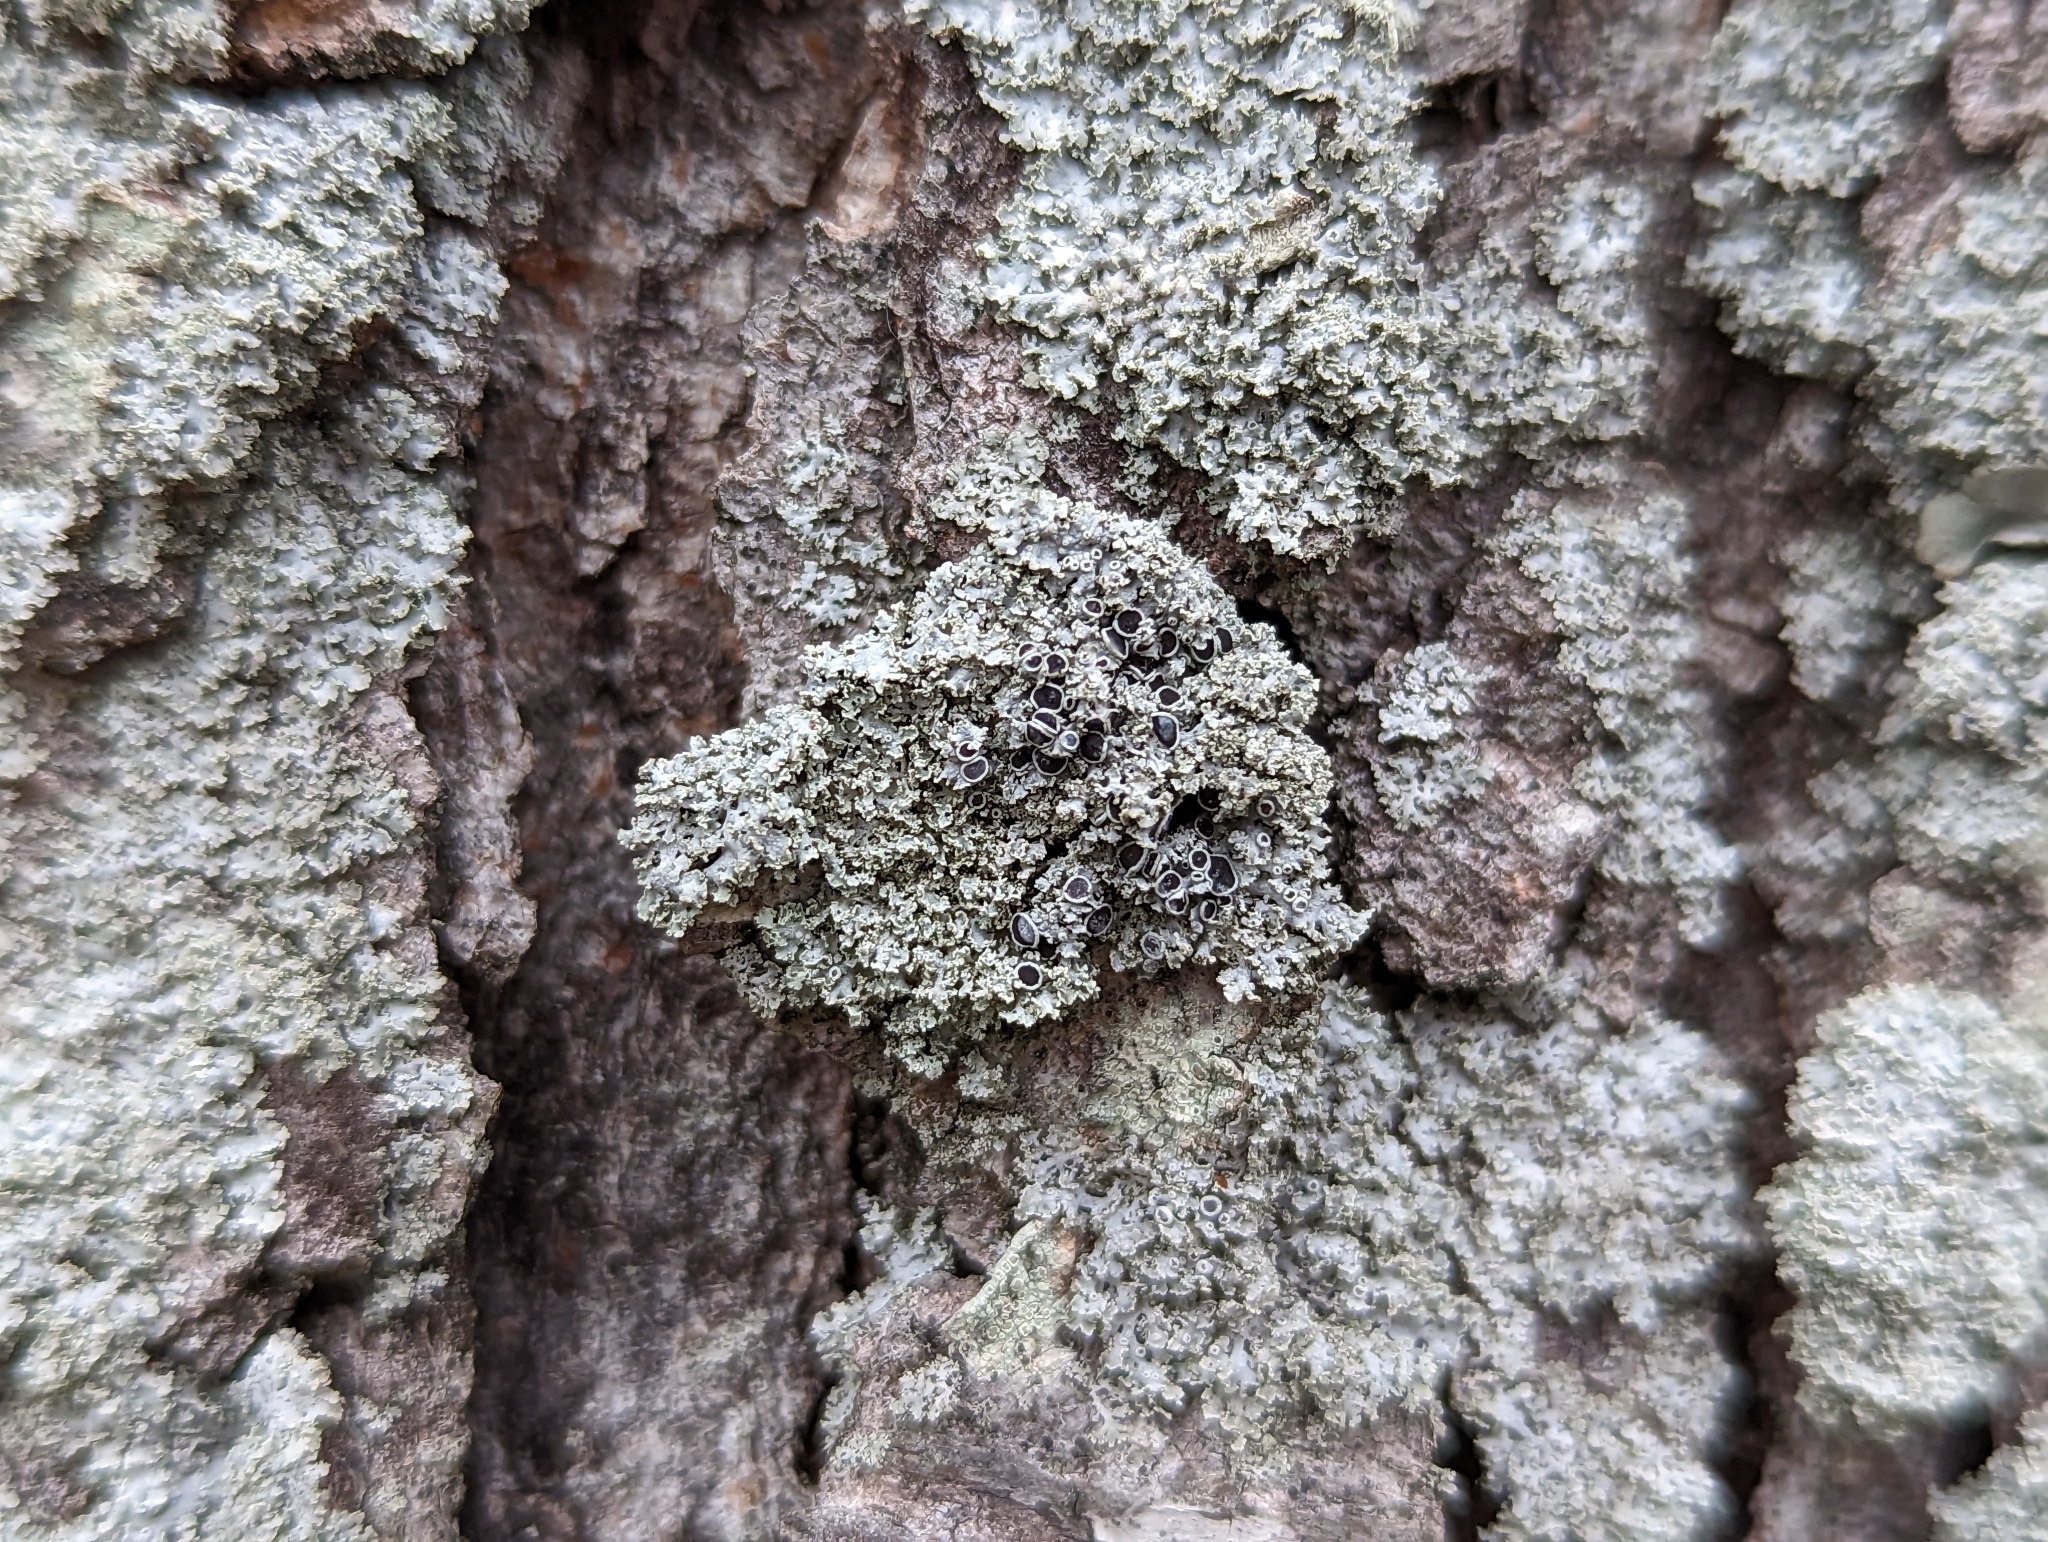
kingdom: Fungi
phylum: Ascomycota
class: Lecanoromycetes
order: Caliciales
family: Physciaceae
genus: Physcia
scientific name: Physcia millegrana
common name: Rosette lichen
